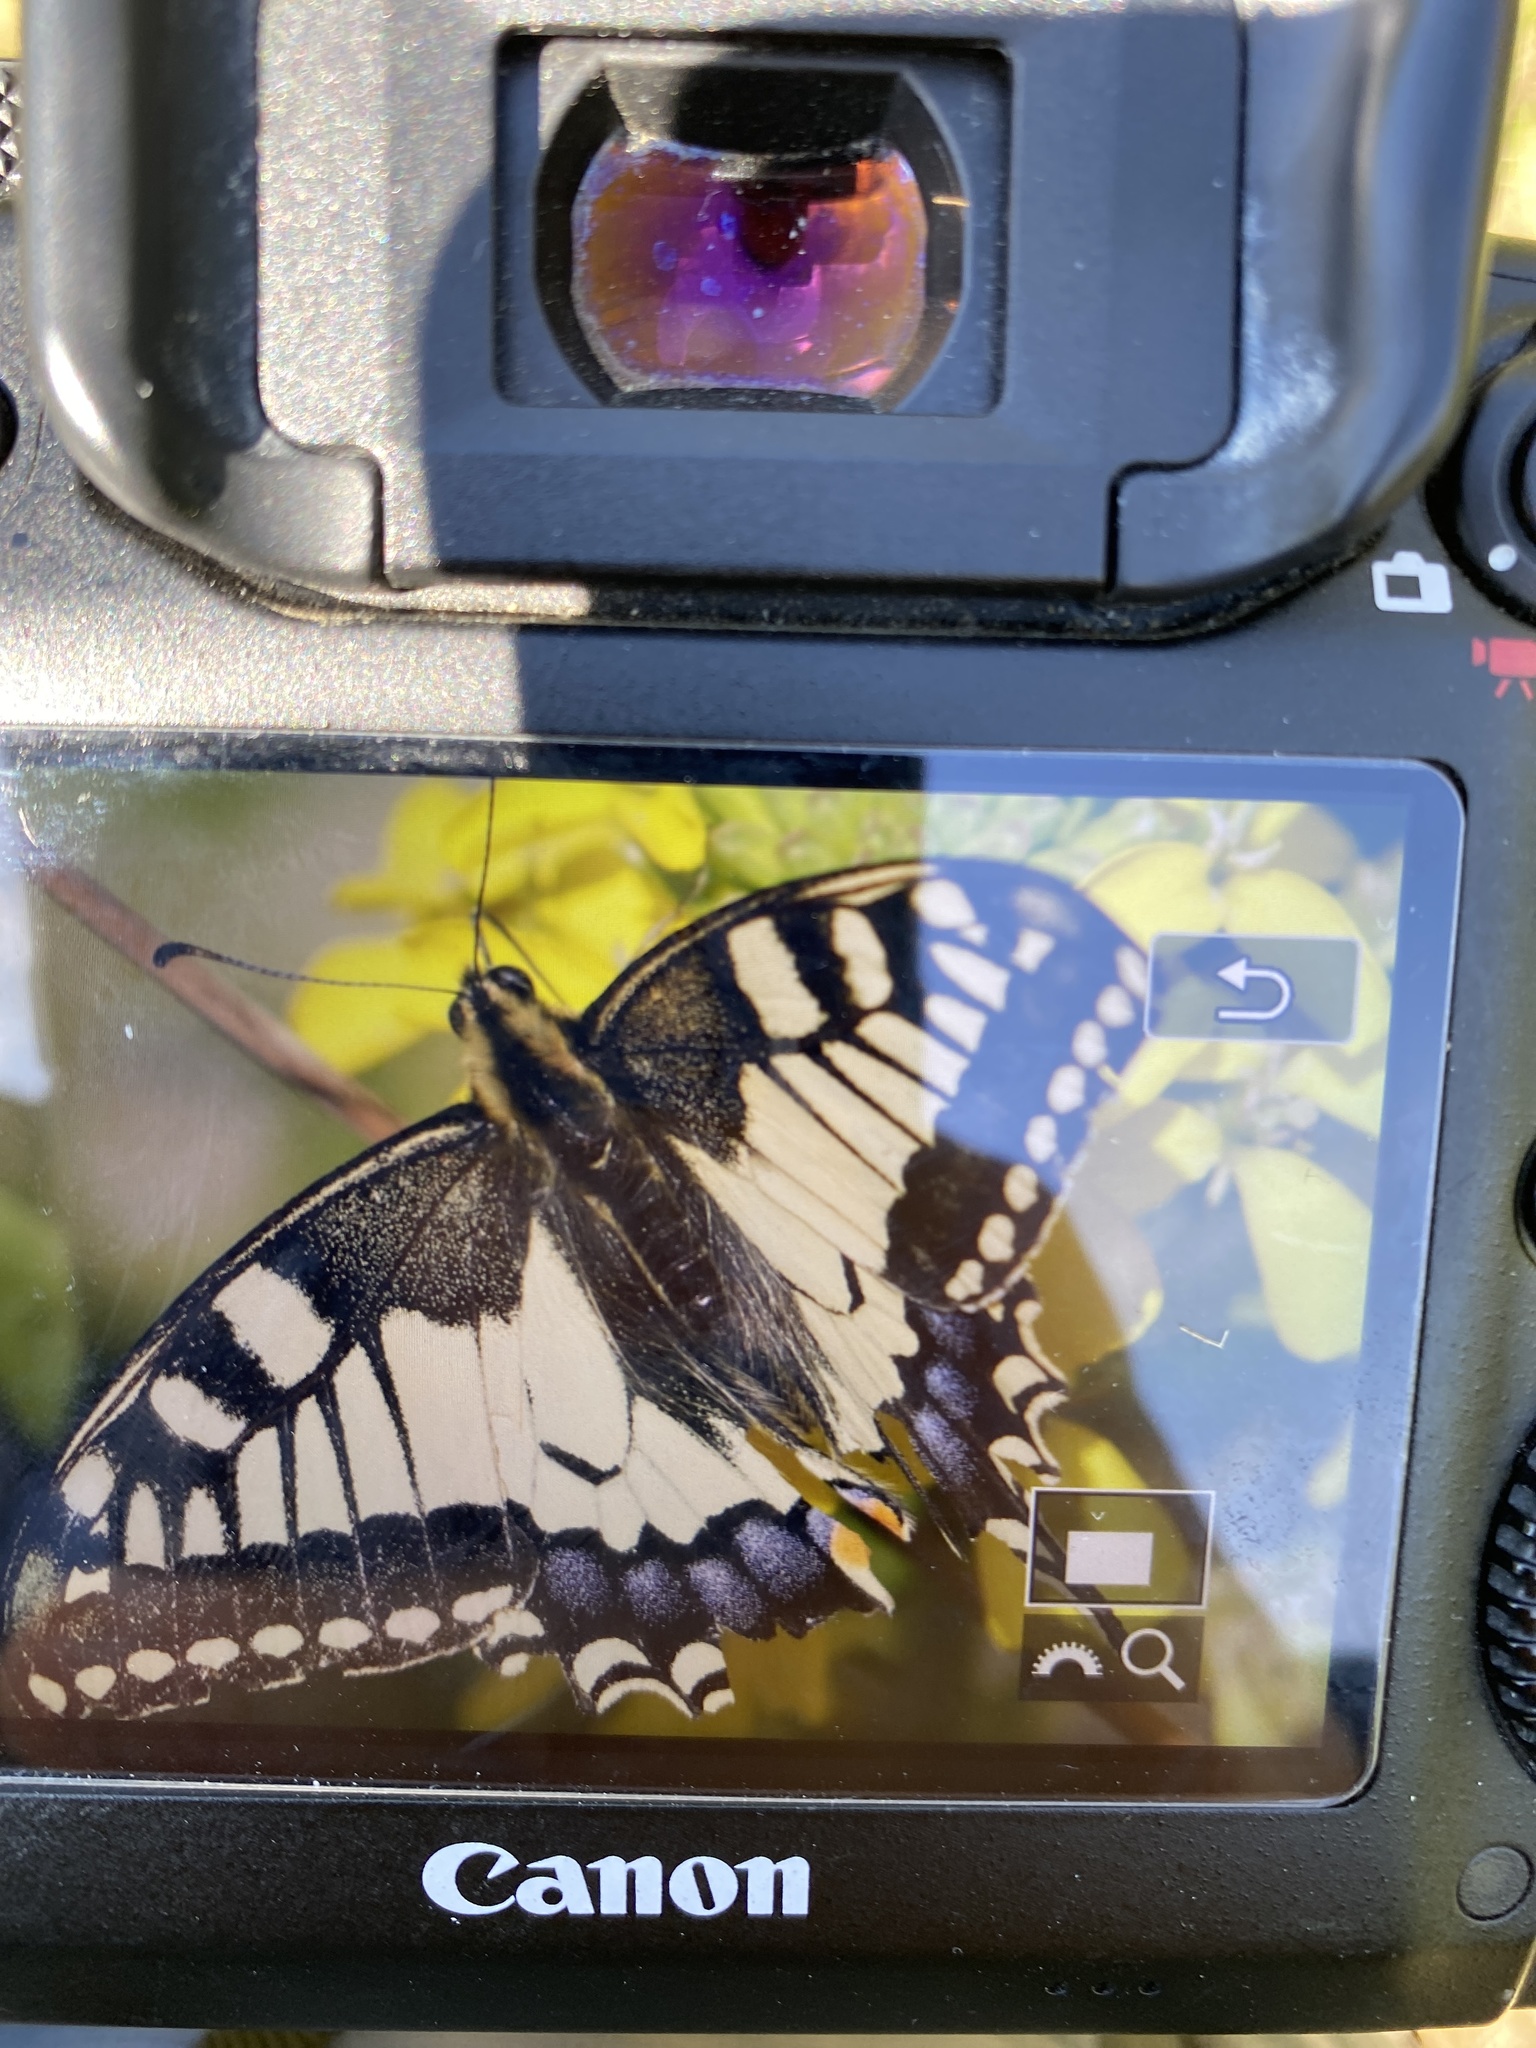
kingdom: Animalia
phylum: Arthropoda
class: Insecta
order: Lepidoptera
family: Papilionidae
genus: Papilio
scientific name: Papilio machaon
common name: Swallowtail
